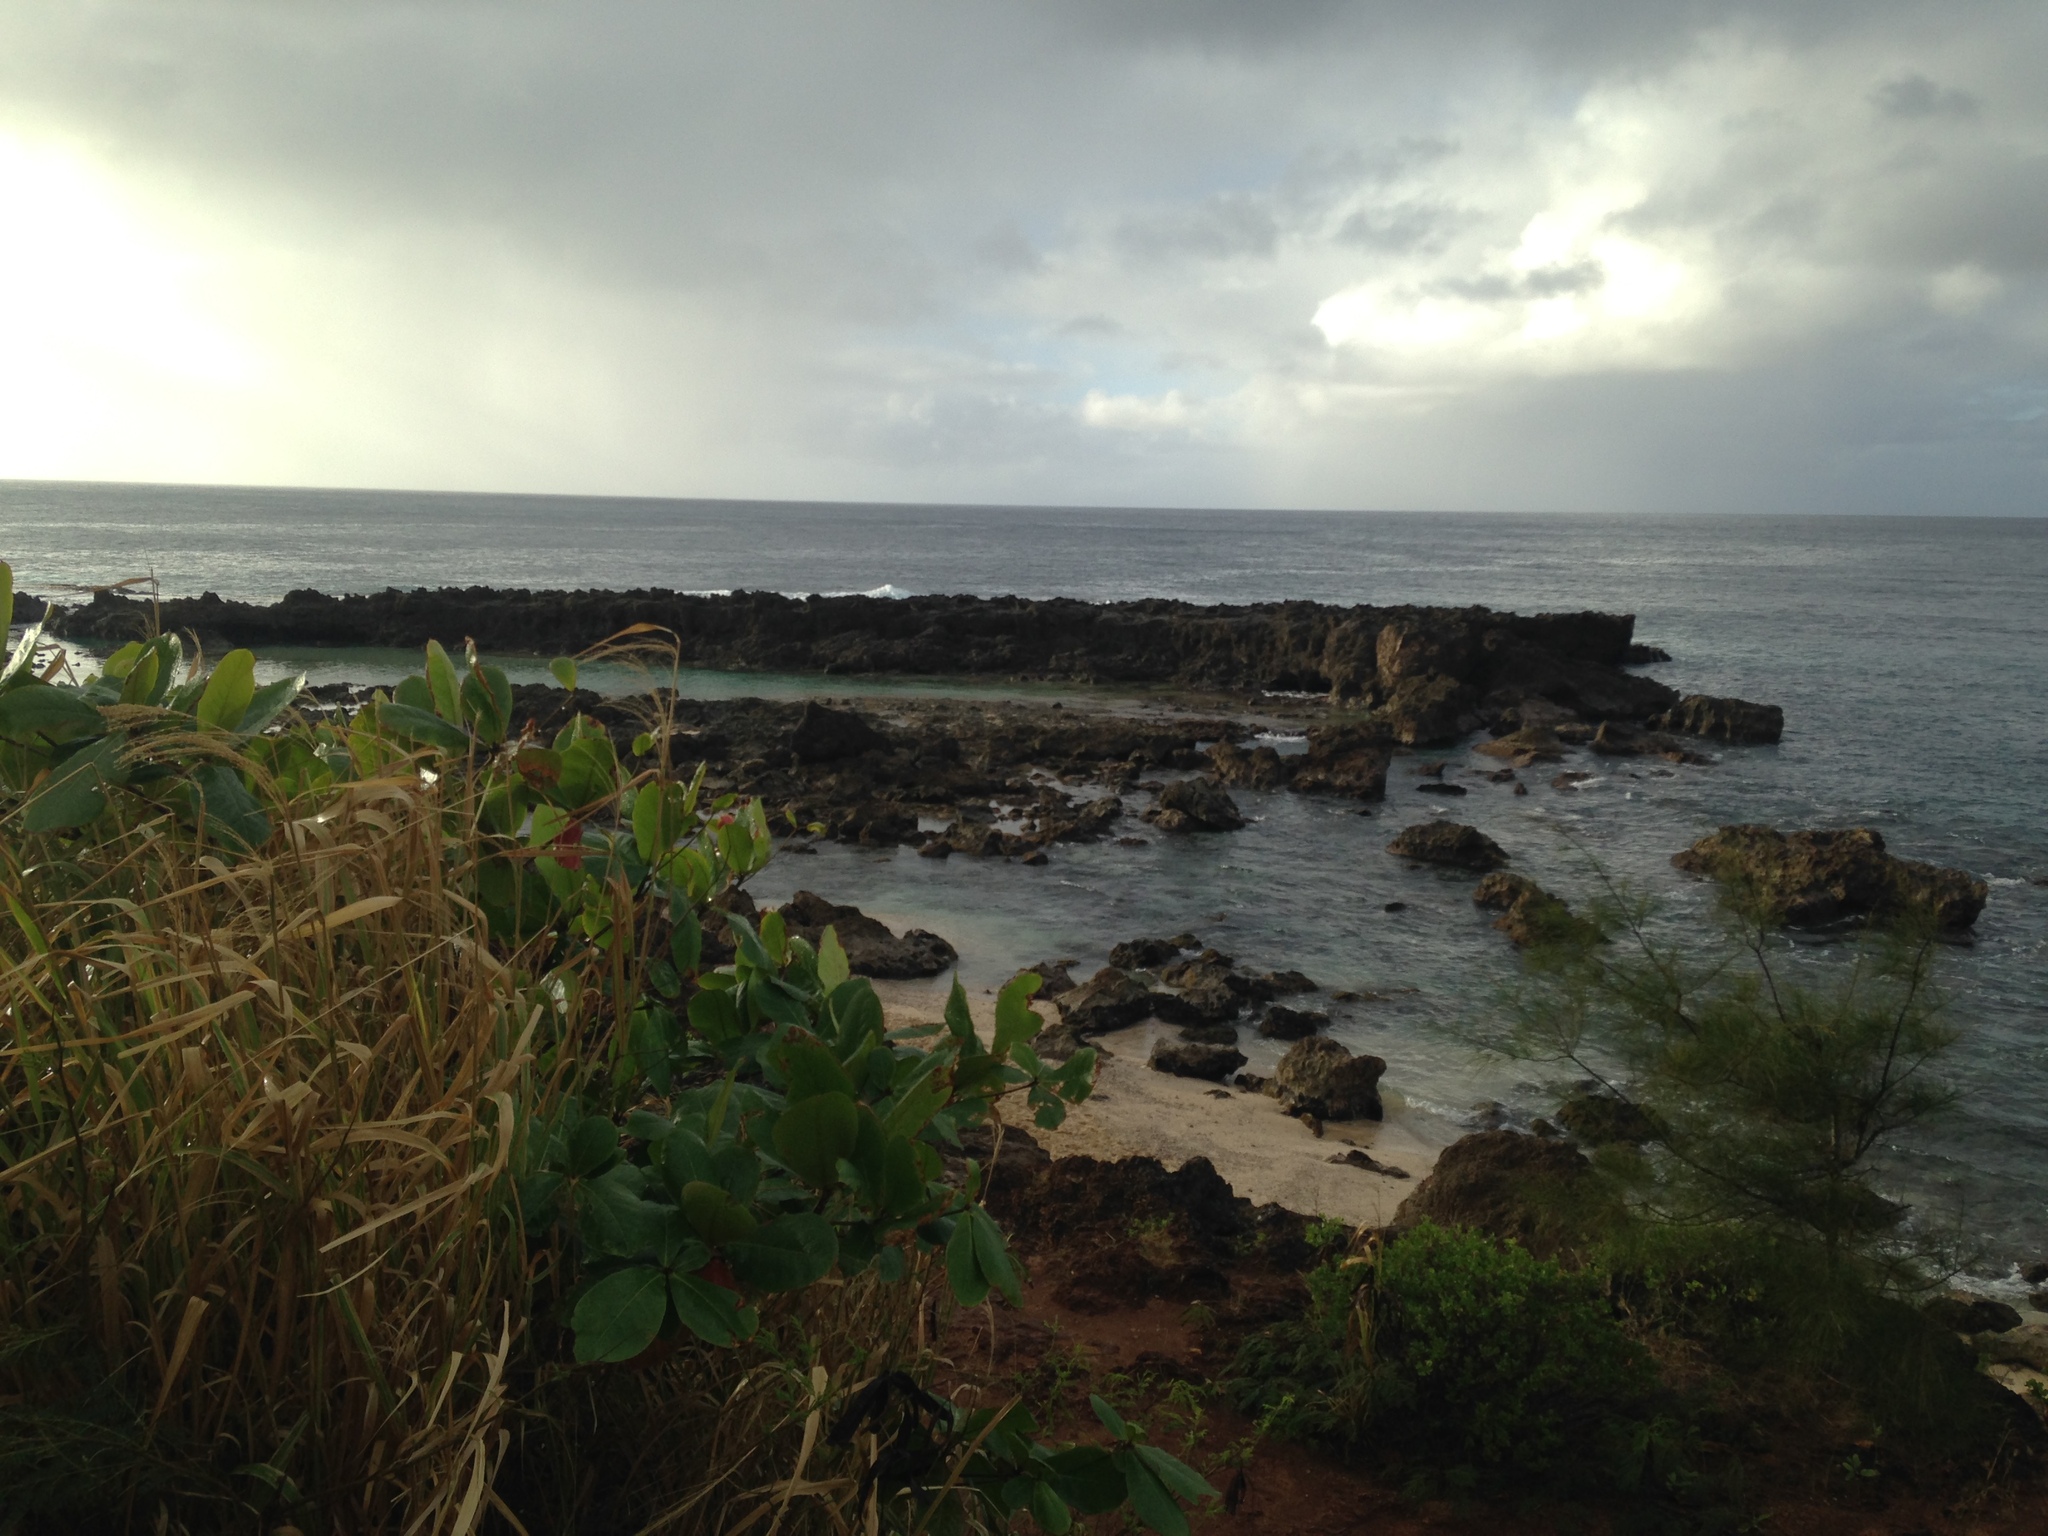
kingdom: Plantae
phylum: Tracheophyta
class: Magnoliopsida
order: Myrtales
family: Combretaceae
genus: Terminalia
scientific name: Terminalia catappa
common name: Tropical almond
